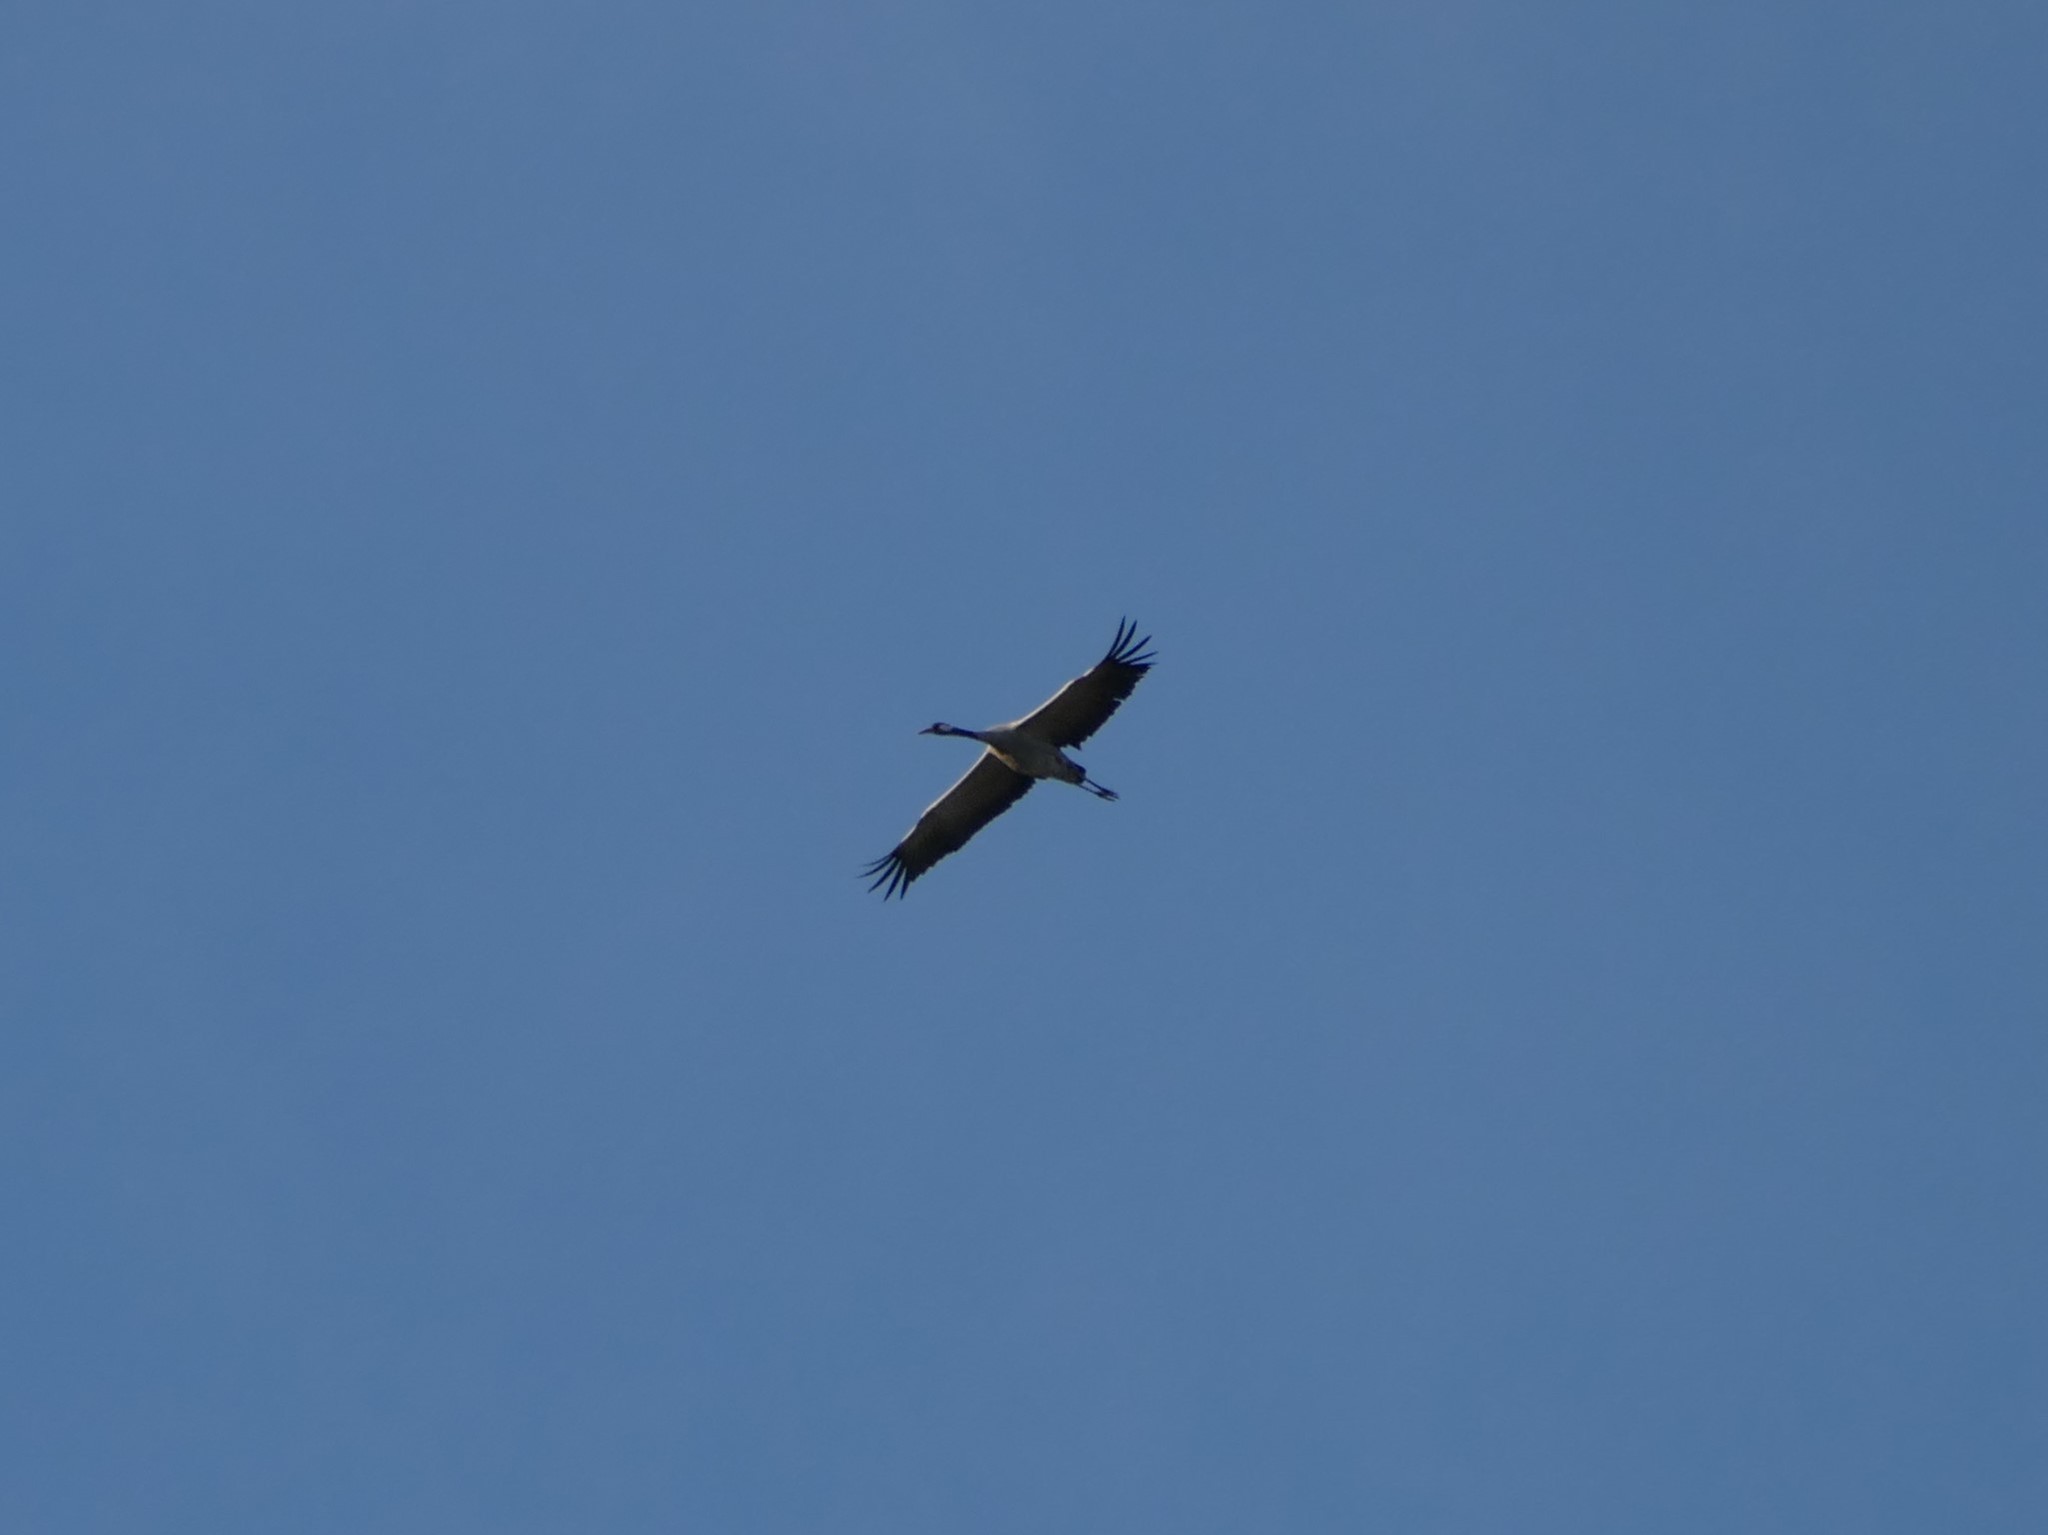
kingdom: Animalia
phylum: Chordata
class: Aves
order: Gruiformes
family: Gruidae
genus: Grus
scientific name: Grus grus
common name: Common crane
